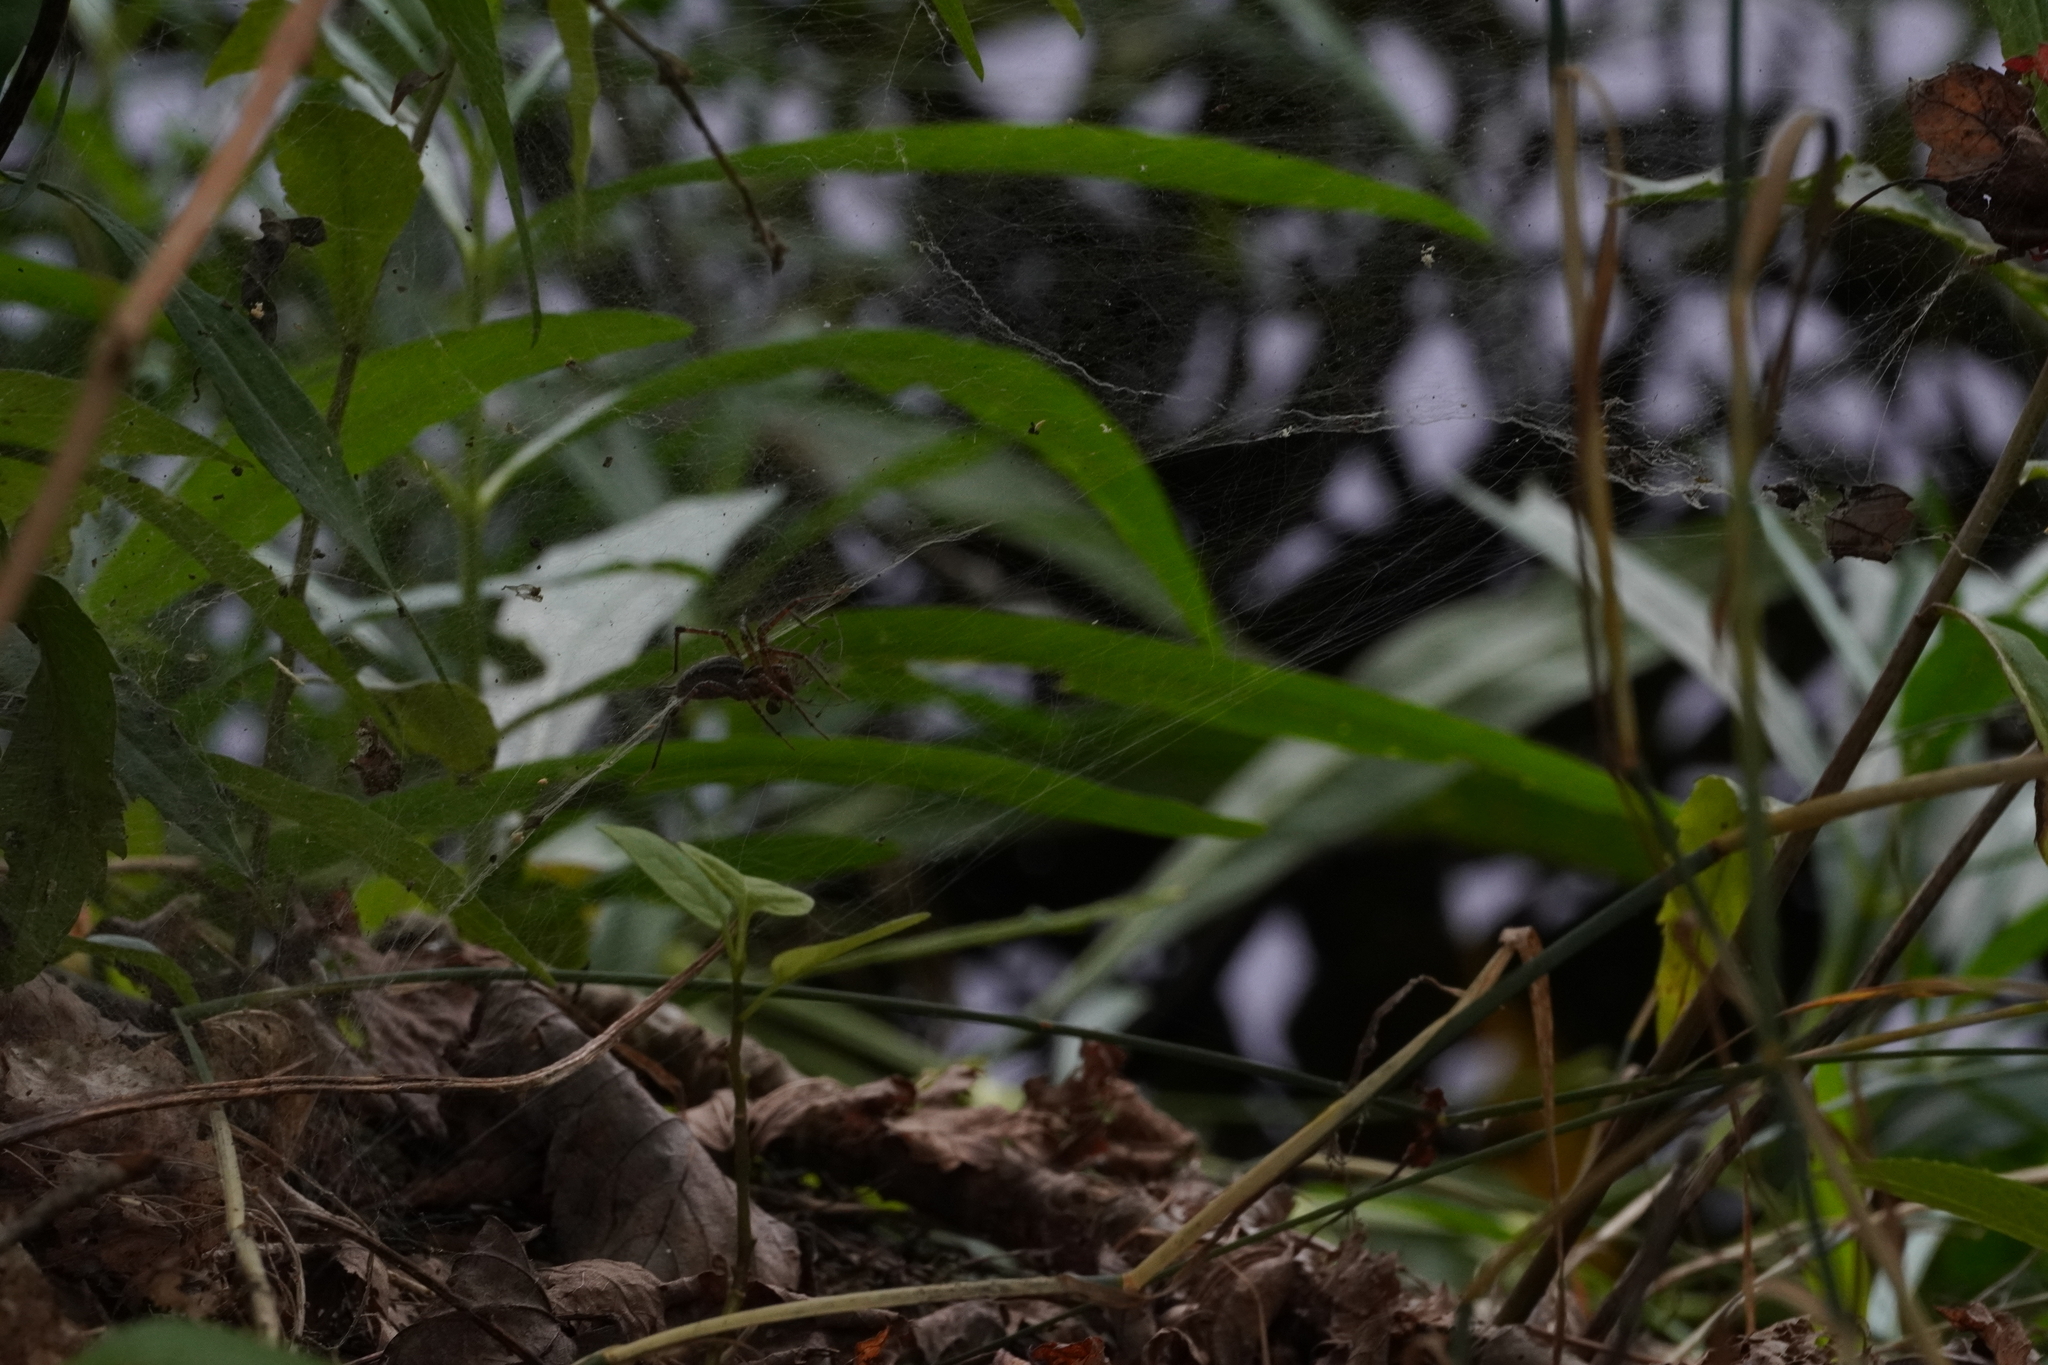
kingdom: Animalia
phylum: Arthropoda
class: Arachnida
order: Araneae
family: Agelenidae
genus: Agelenopsis
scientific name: Agelenopsis
